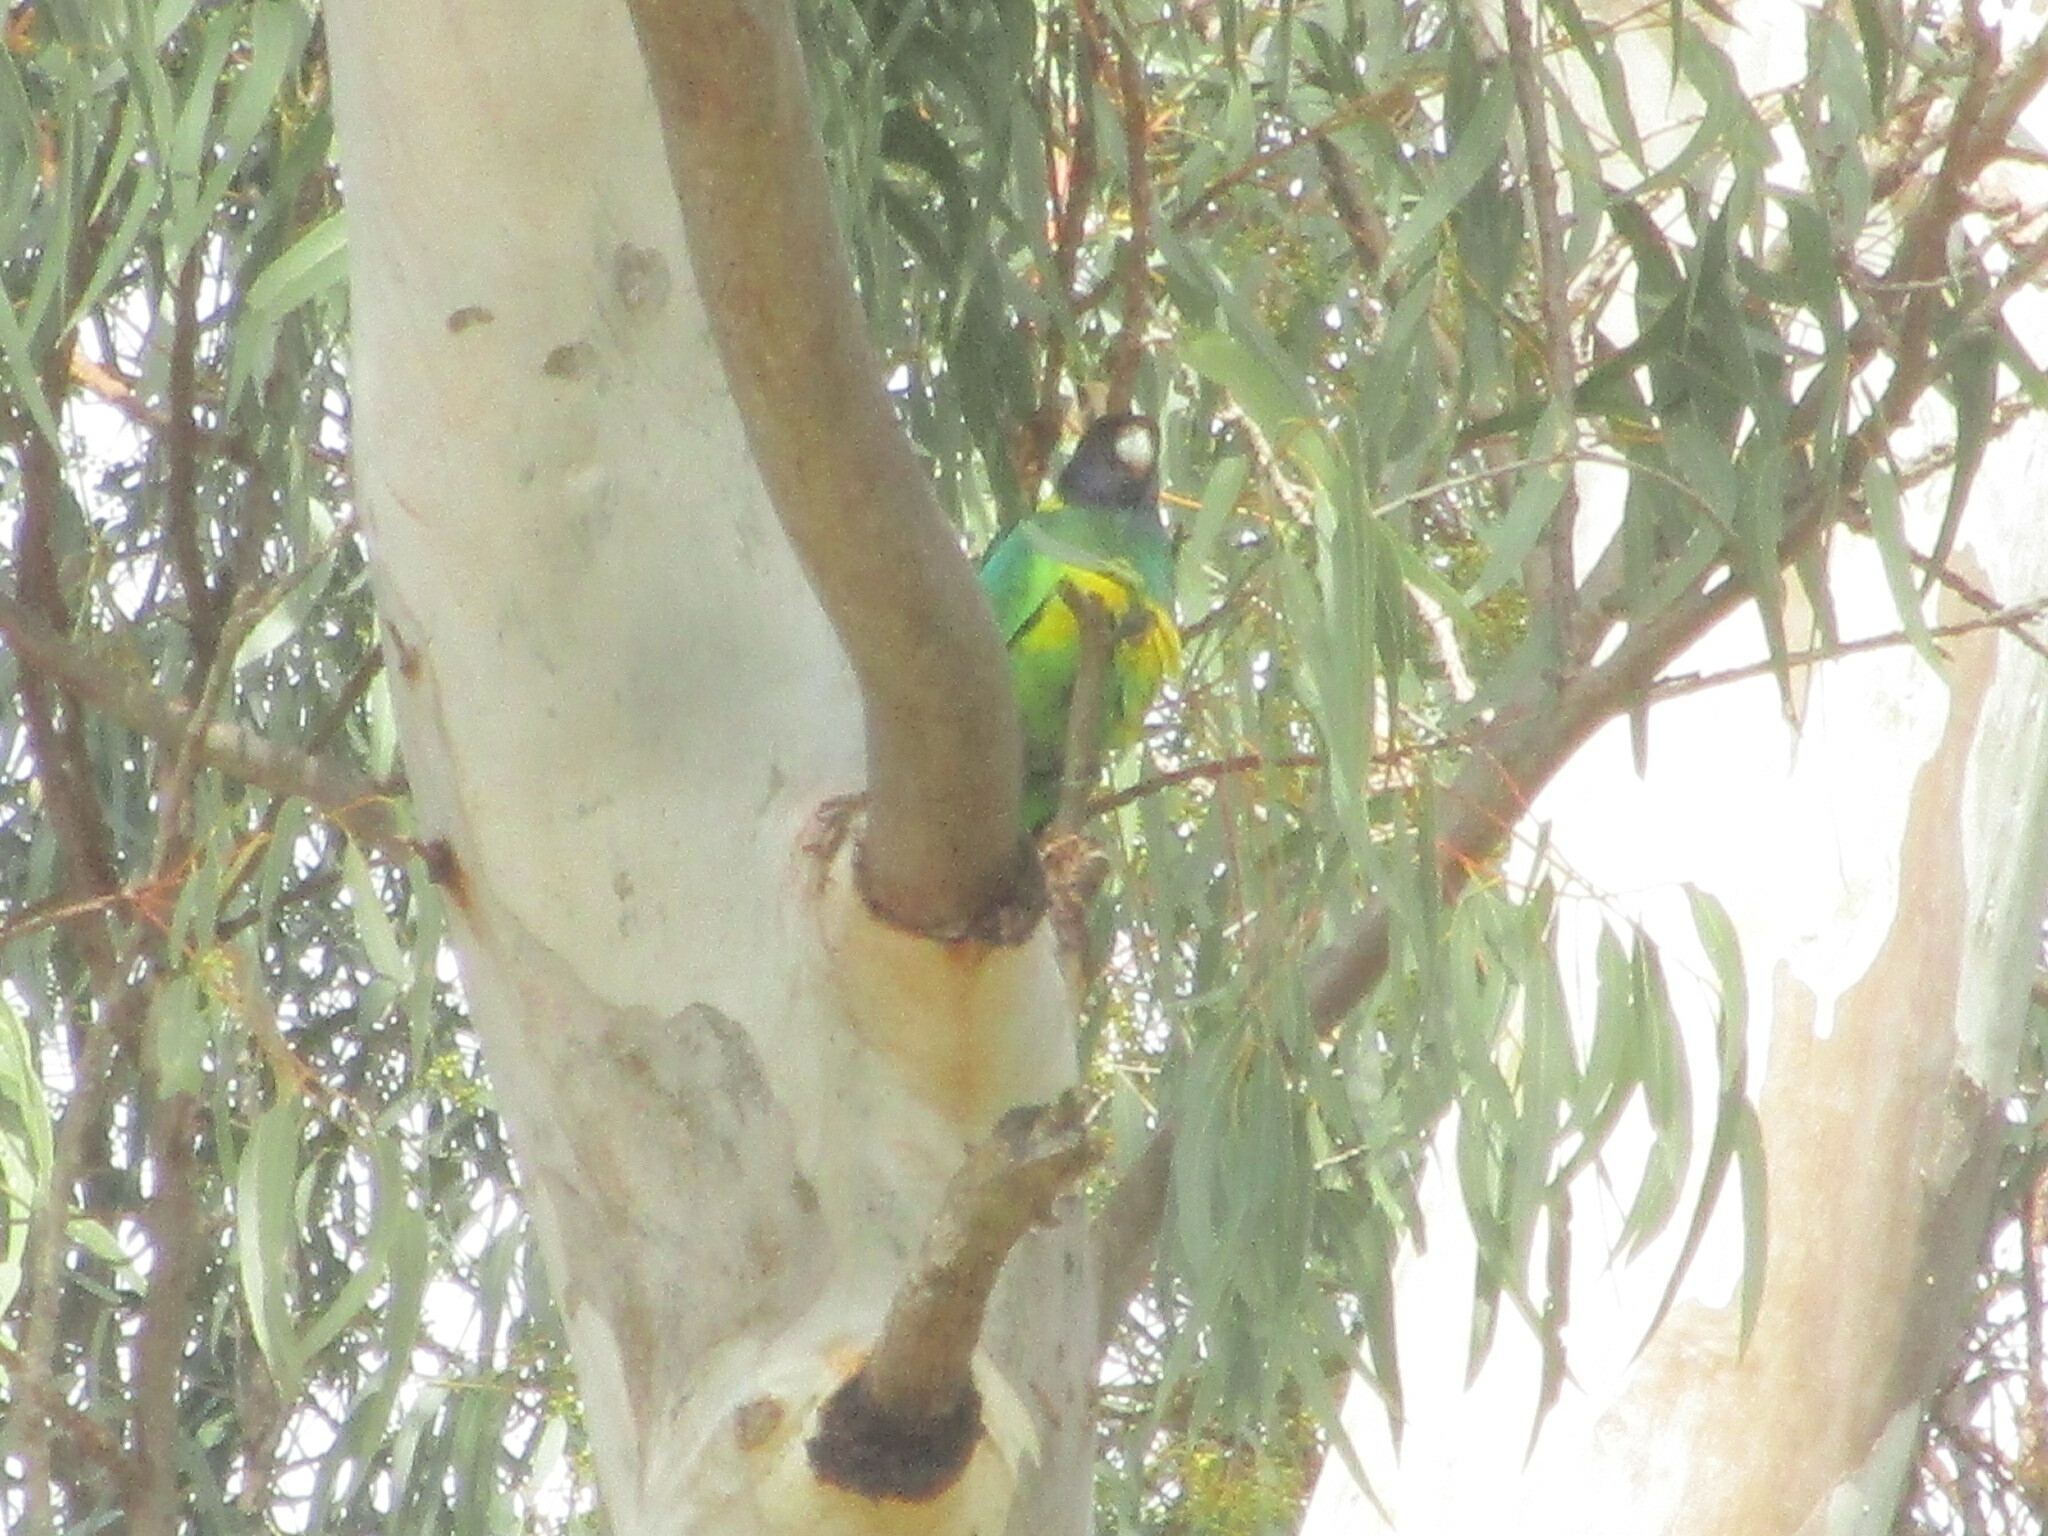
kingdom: Animalia
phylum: Chordata
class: Aves
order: Psittaciformes
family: Psittacidae
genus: Barnardius
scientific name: Barnardius
